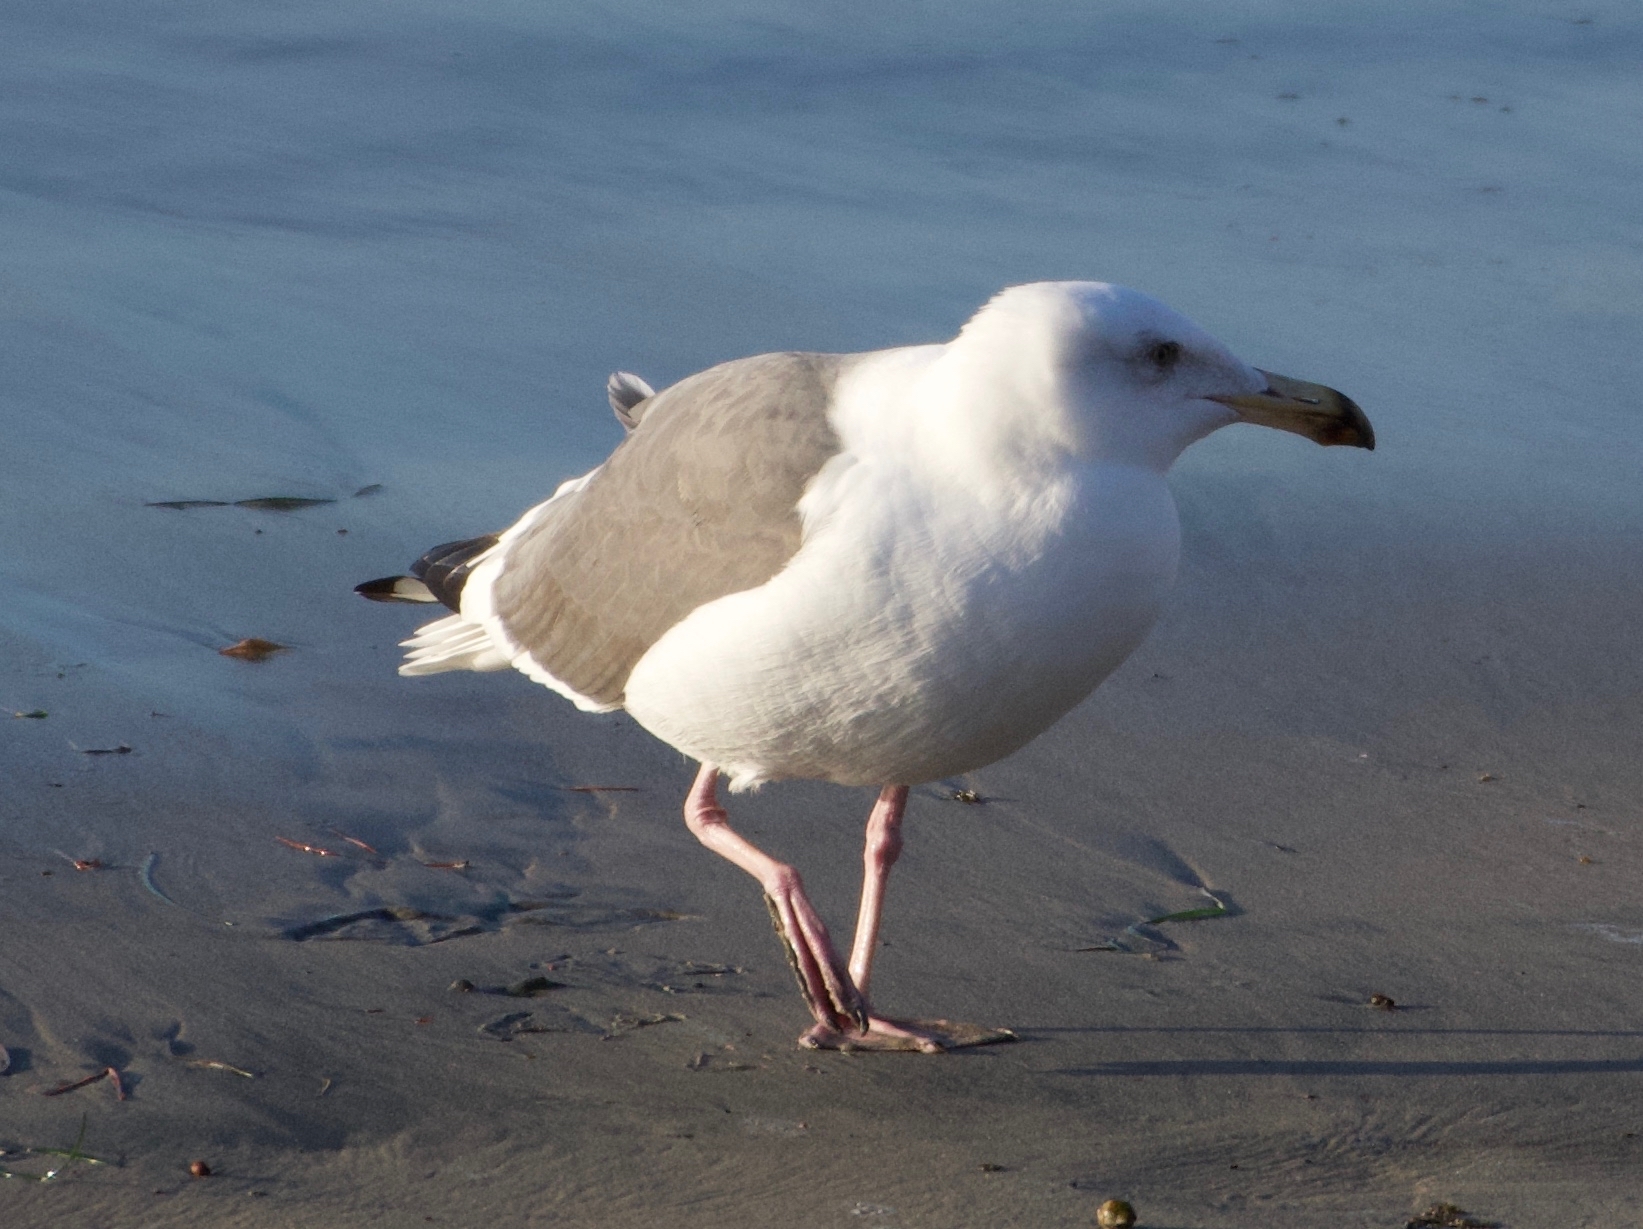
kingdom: Animalia
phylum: Chordata
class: Aves
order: Charadriiformes
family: Laridae
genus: Larus
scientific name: Larus occidentalis
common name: Western gull
